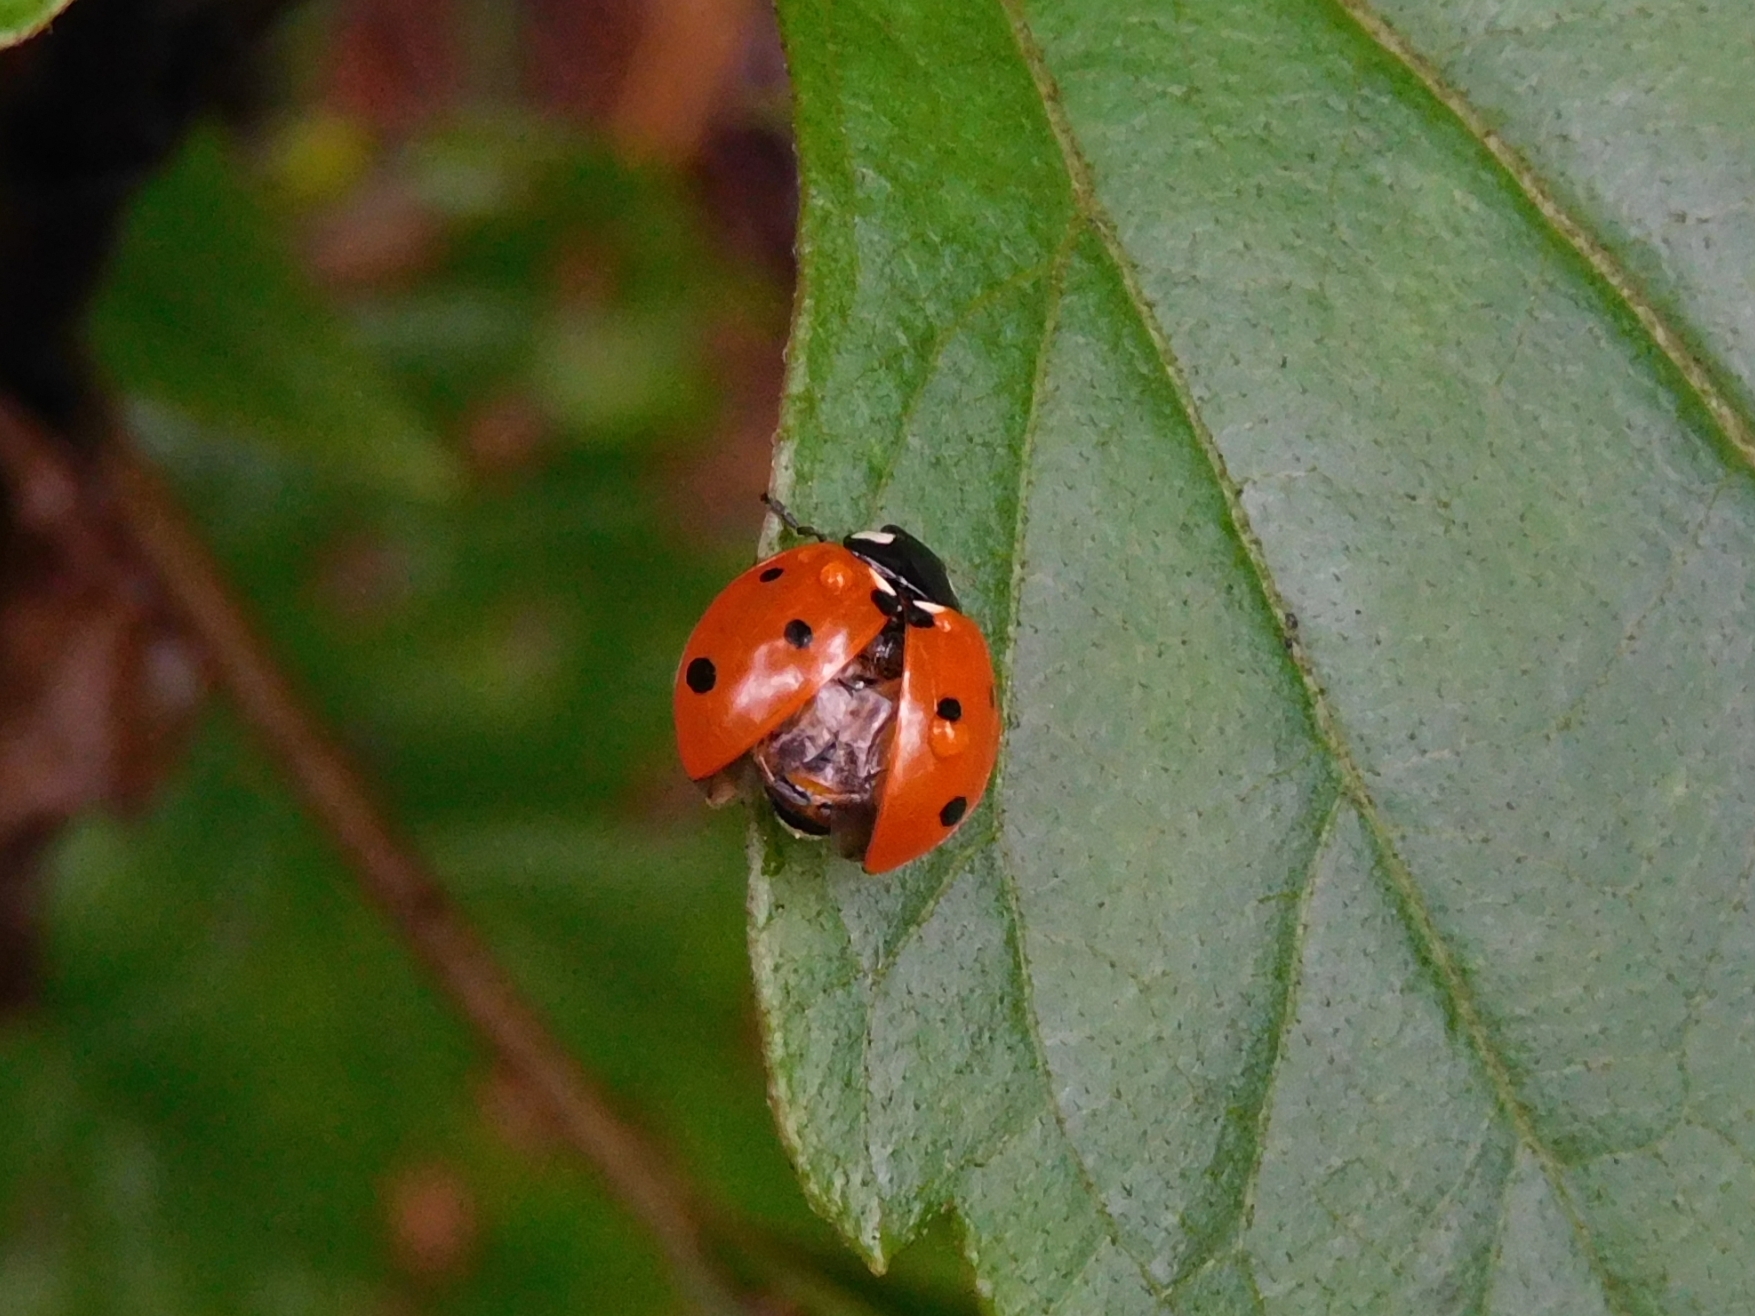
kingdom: Animalia
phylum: Arthropoda
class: Insecta
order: Coleoptera
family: Coccinellidae
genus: Coccinella
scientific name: Coccinella septempunctata
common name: Sevenspotted lady beetle
